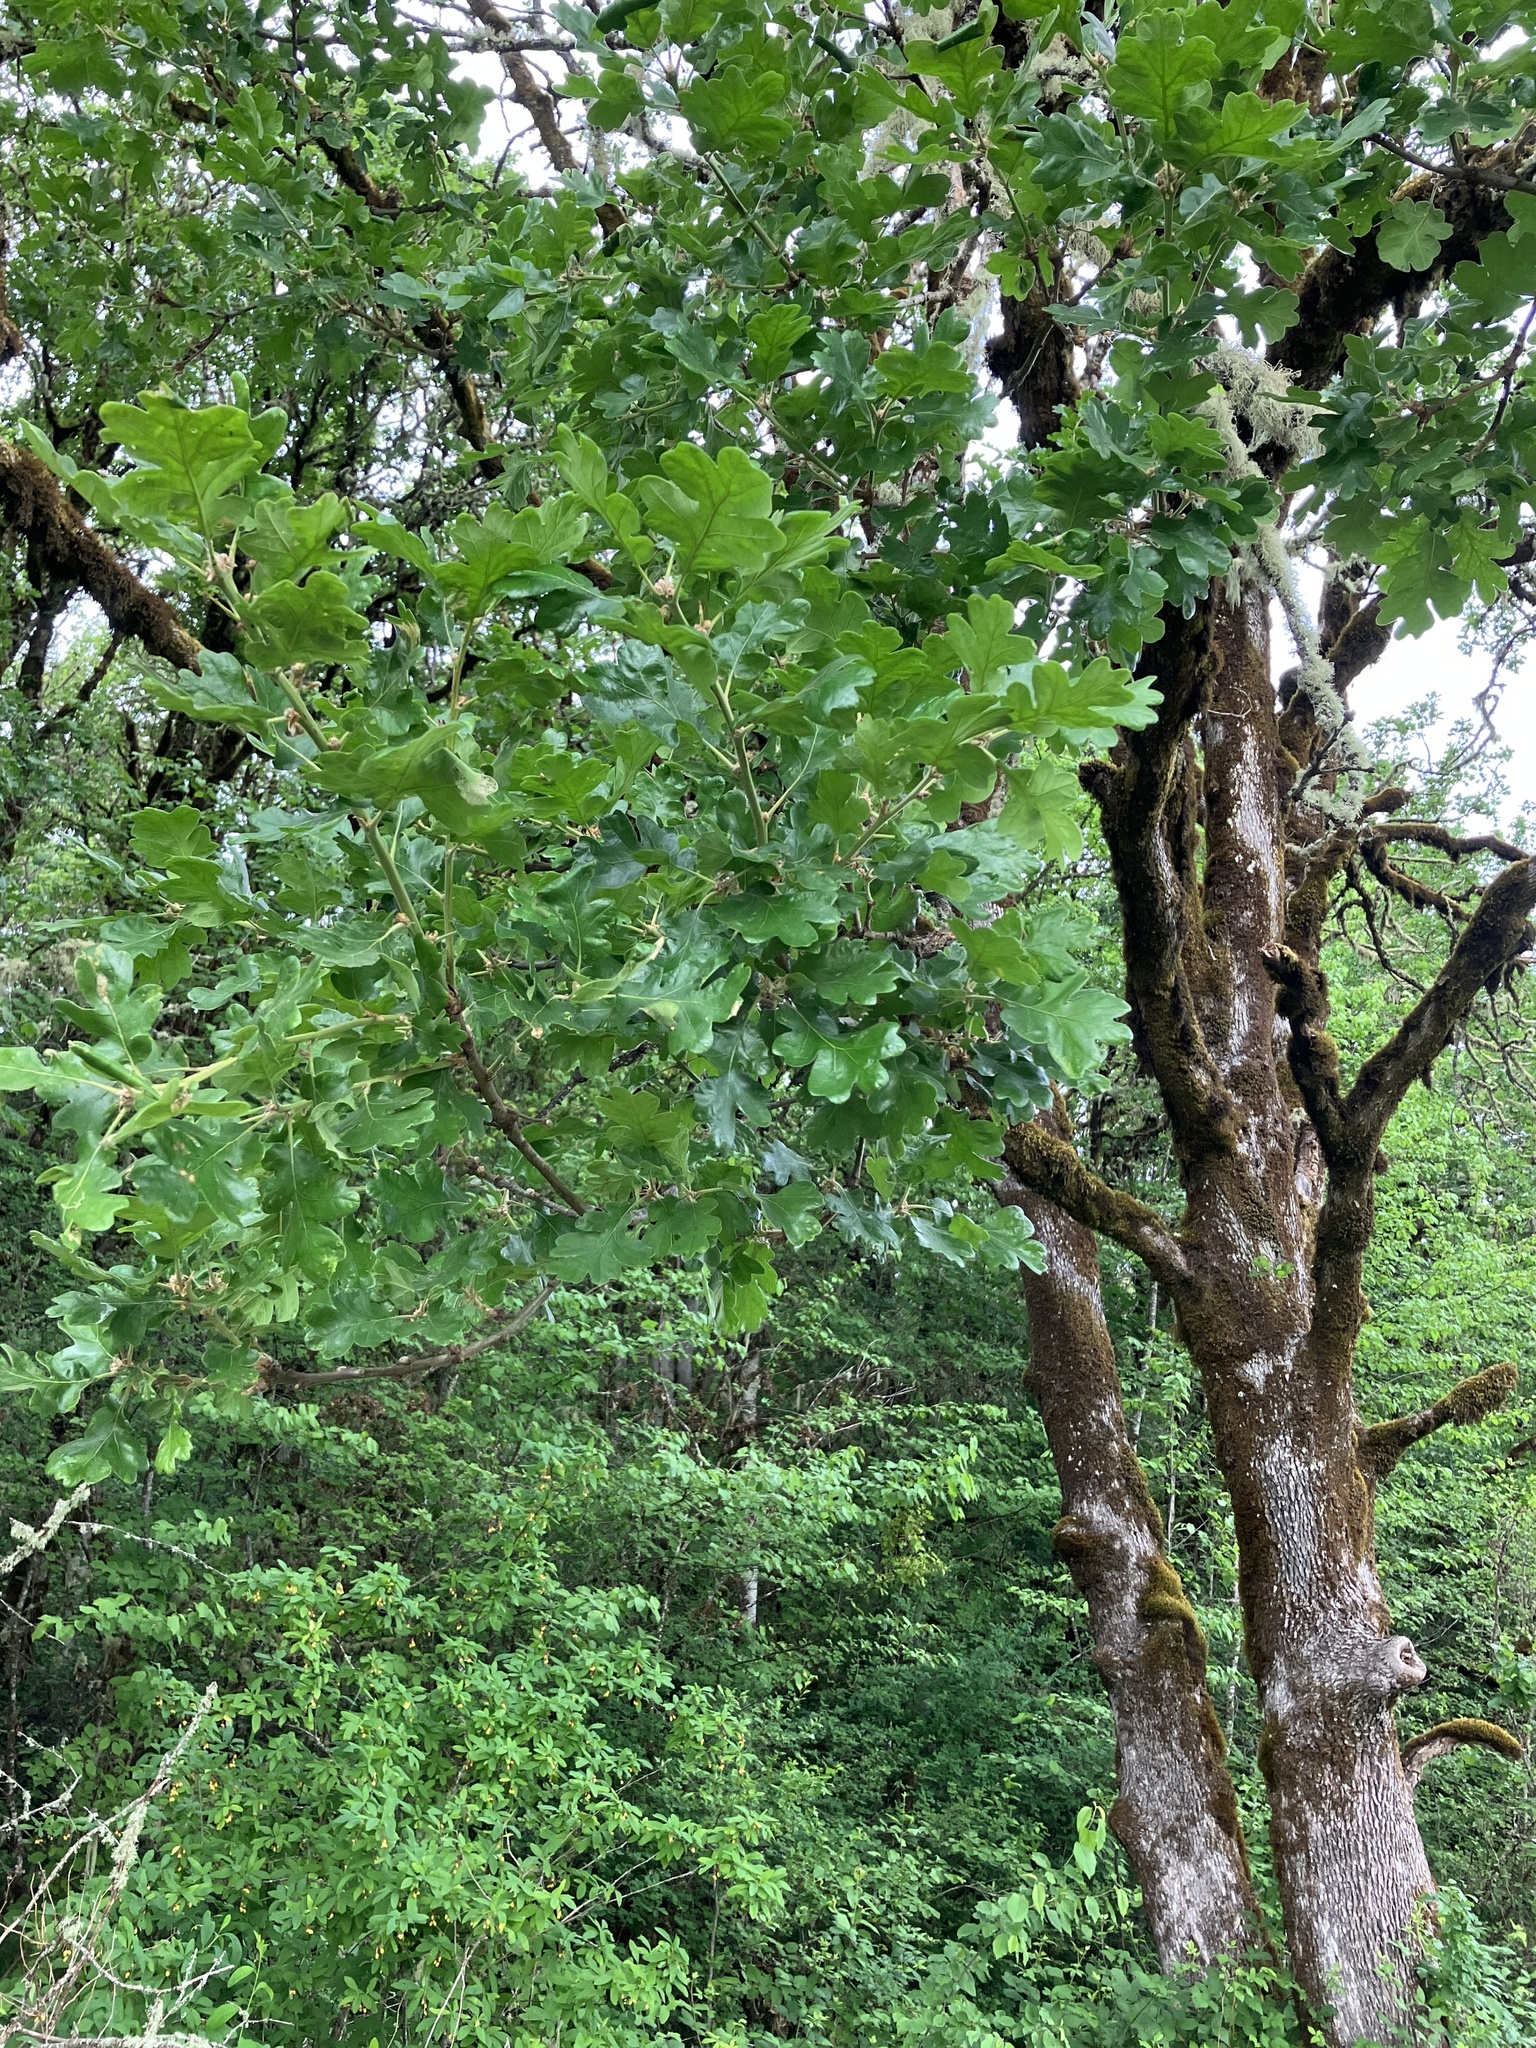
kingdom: Plantae
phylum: Tracheophyta
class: Magnoliopsida
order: Fagales
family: Fagaceae
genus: Quercus
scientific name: Quercus garryana
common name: Garry oak
